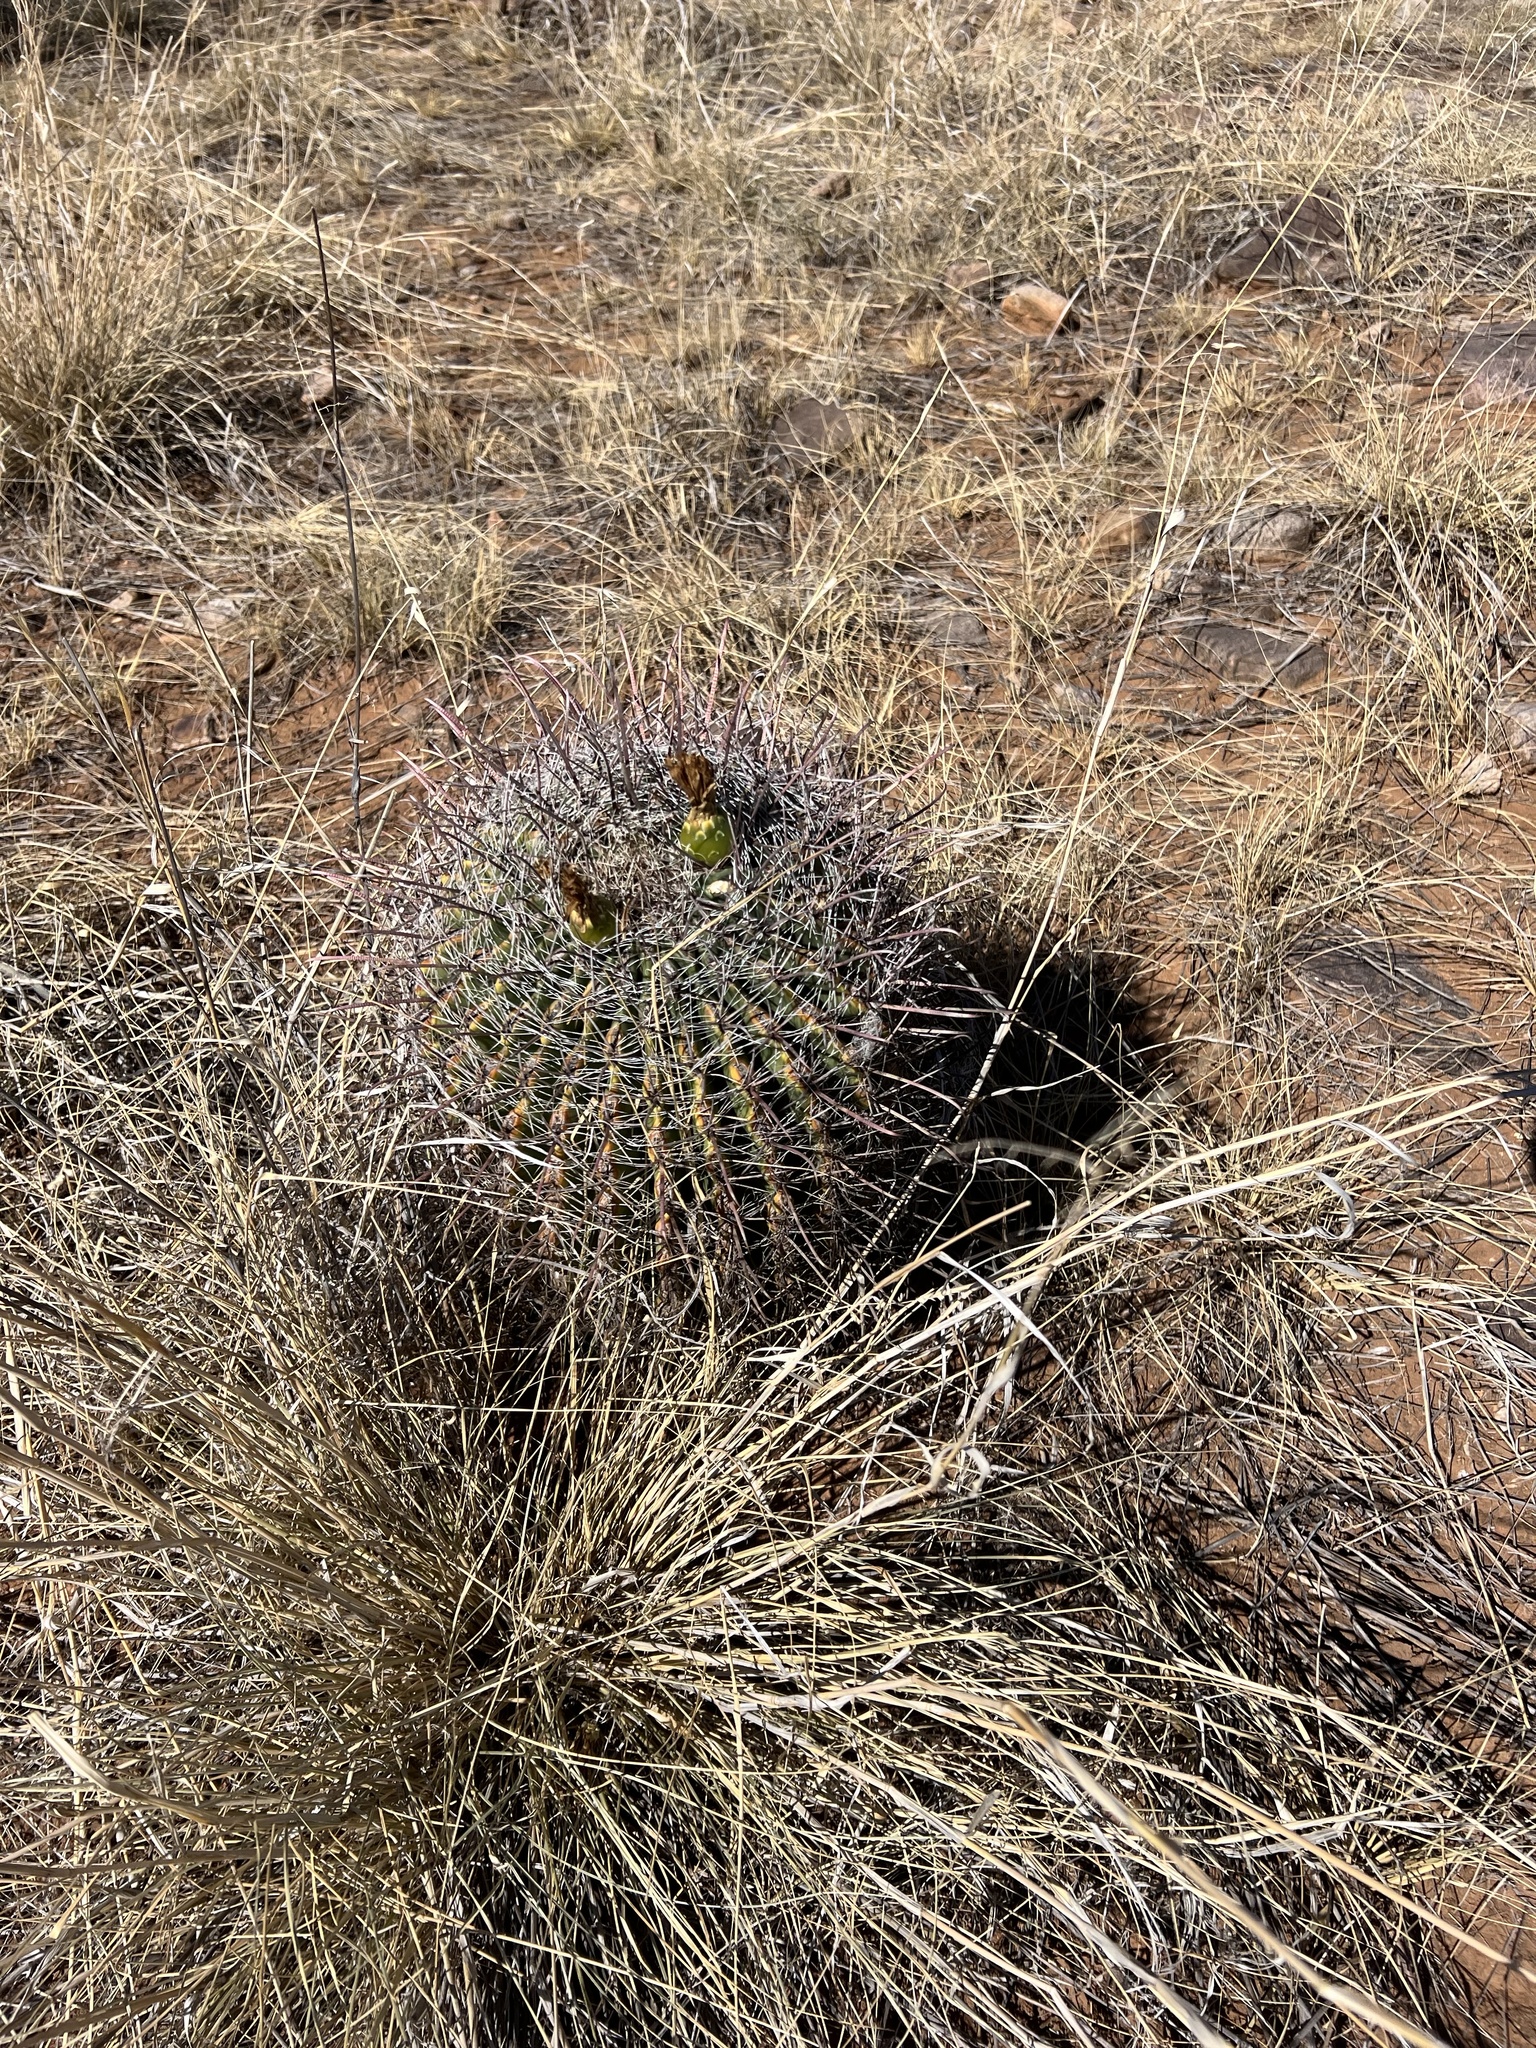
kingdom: Plantae
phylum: Tracheophyta
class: Magnoliopsida
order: Caryophyllales
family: Cactaceae
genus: Ferocactus
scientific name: Ferocactus wislizeni
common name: Candy barrel cactus
